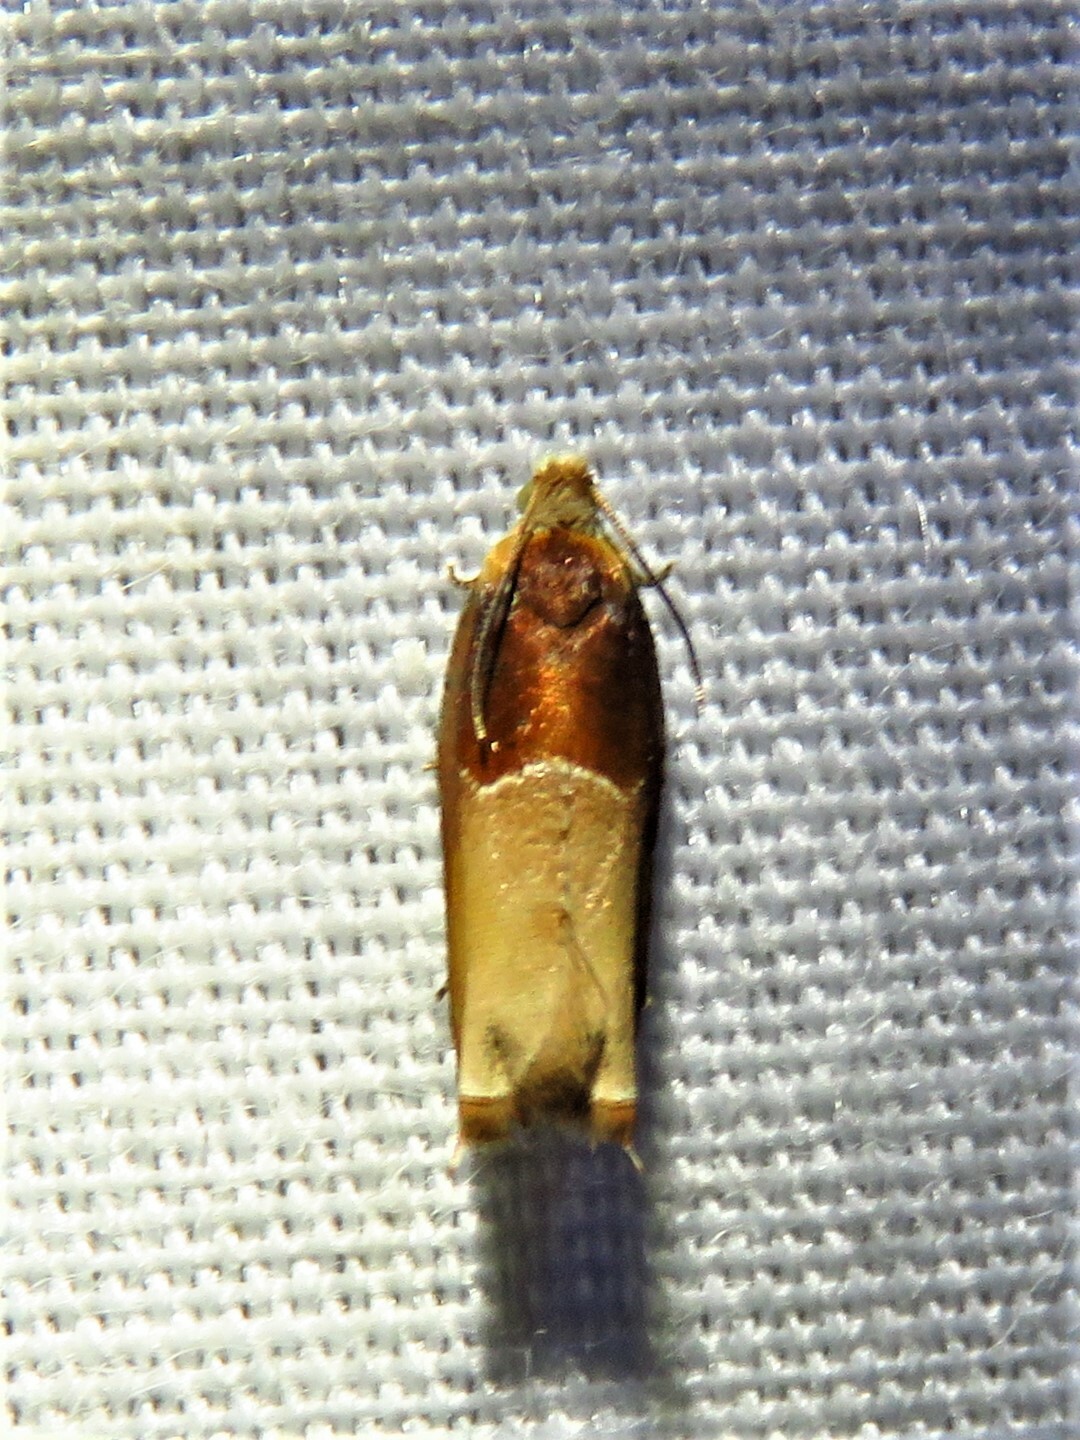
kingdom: Animalia
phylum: Arthropoda
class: Insecta
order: Lepidoptera
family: Tortricidae
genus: Ancylis
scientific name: Ancylis divisana
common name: Two-toned ancylis moth
